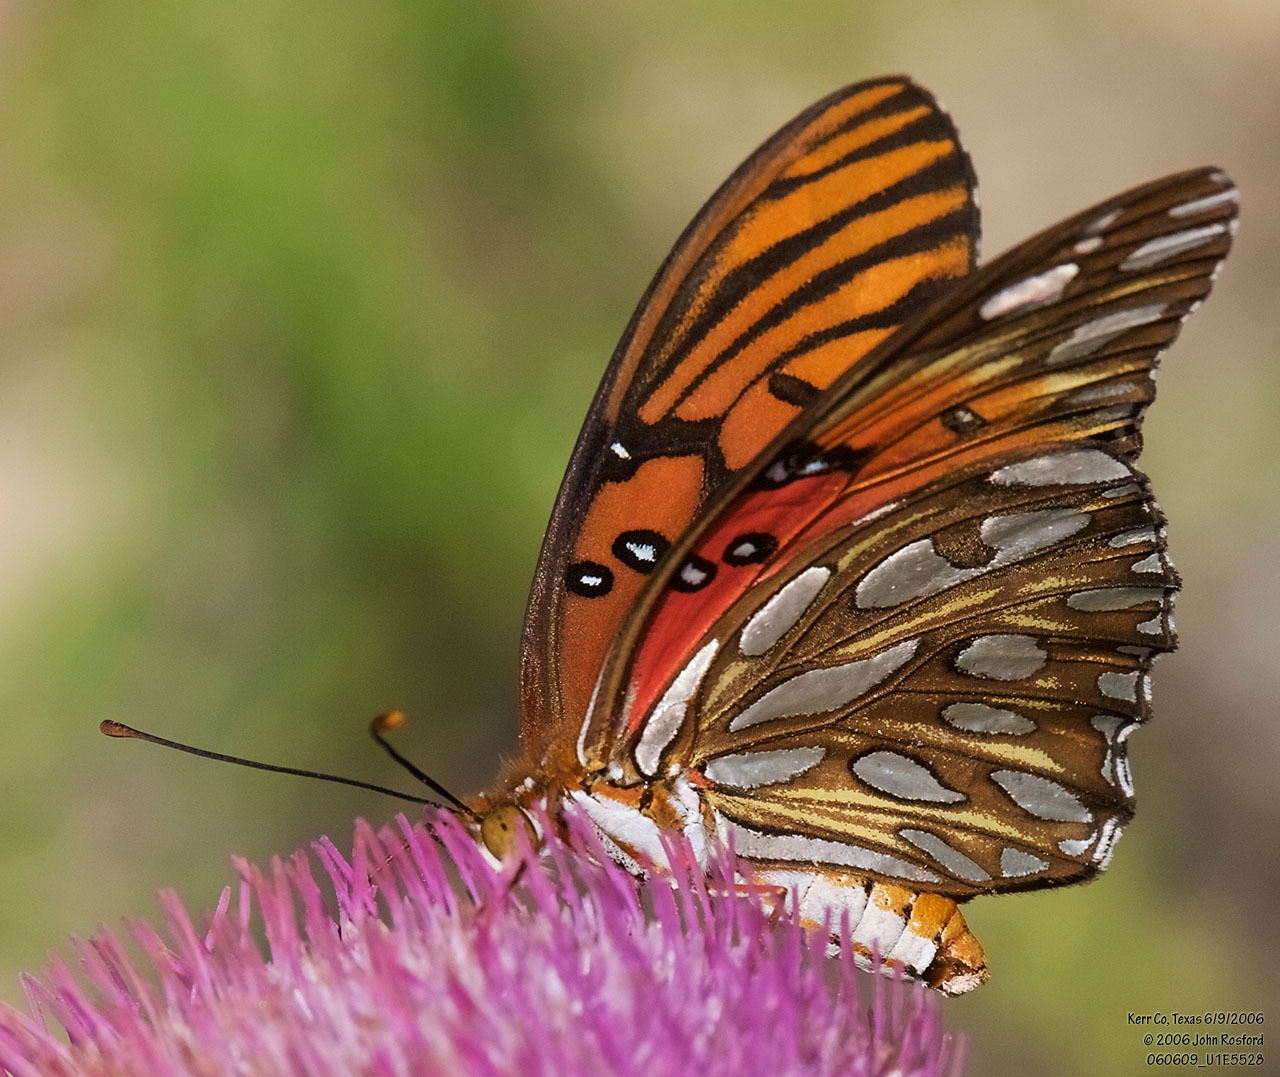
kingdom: Animalia
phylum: Arthropoda
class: Insecta
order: Lepidoptera
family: Nymphalidae
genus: Dione
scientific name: Dione vanillae
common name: Gulf fritillary
